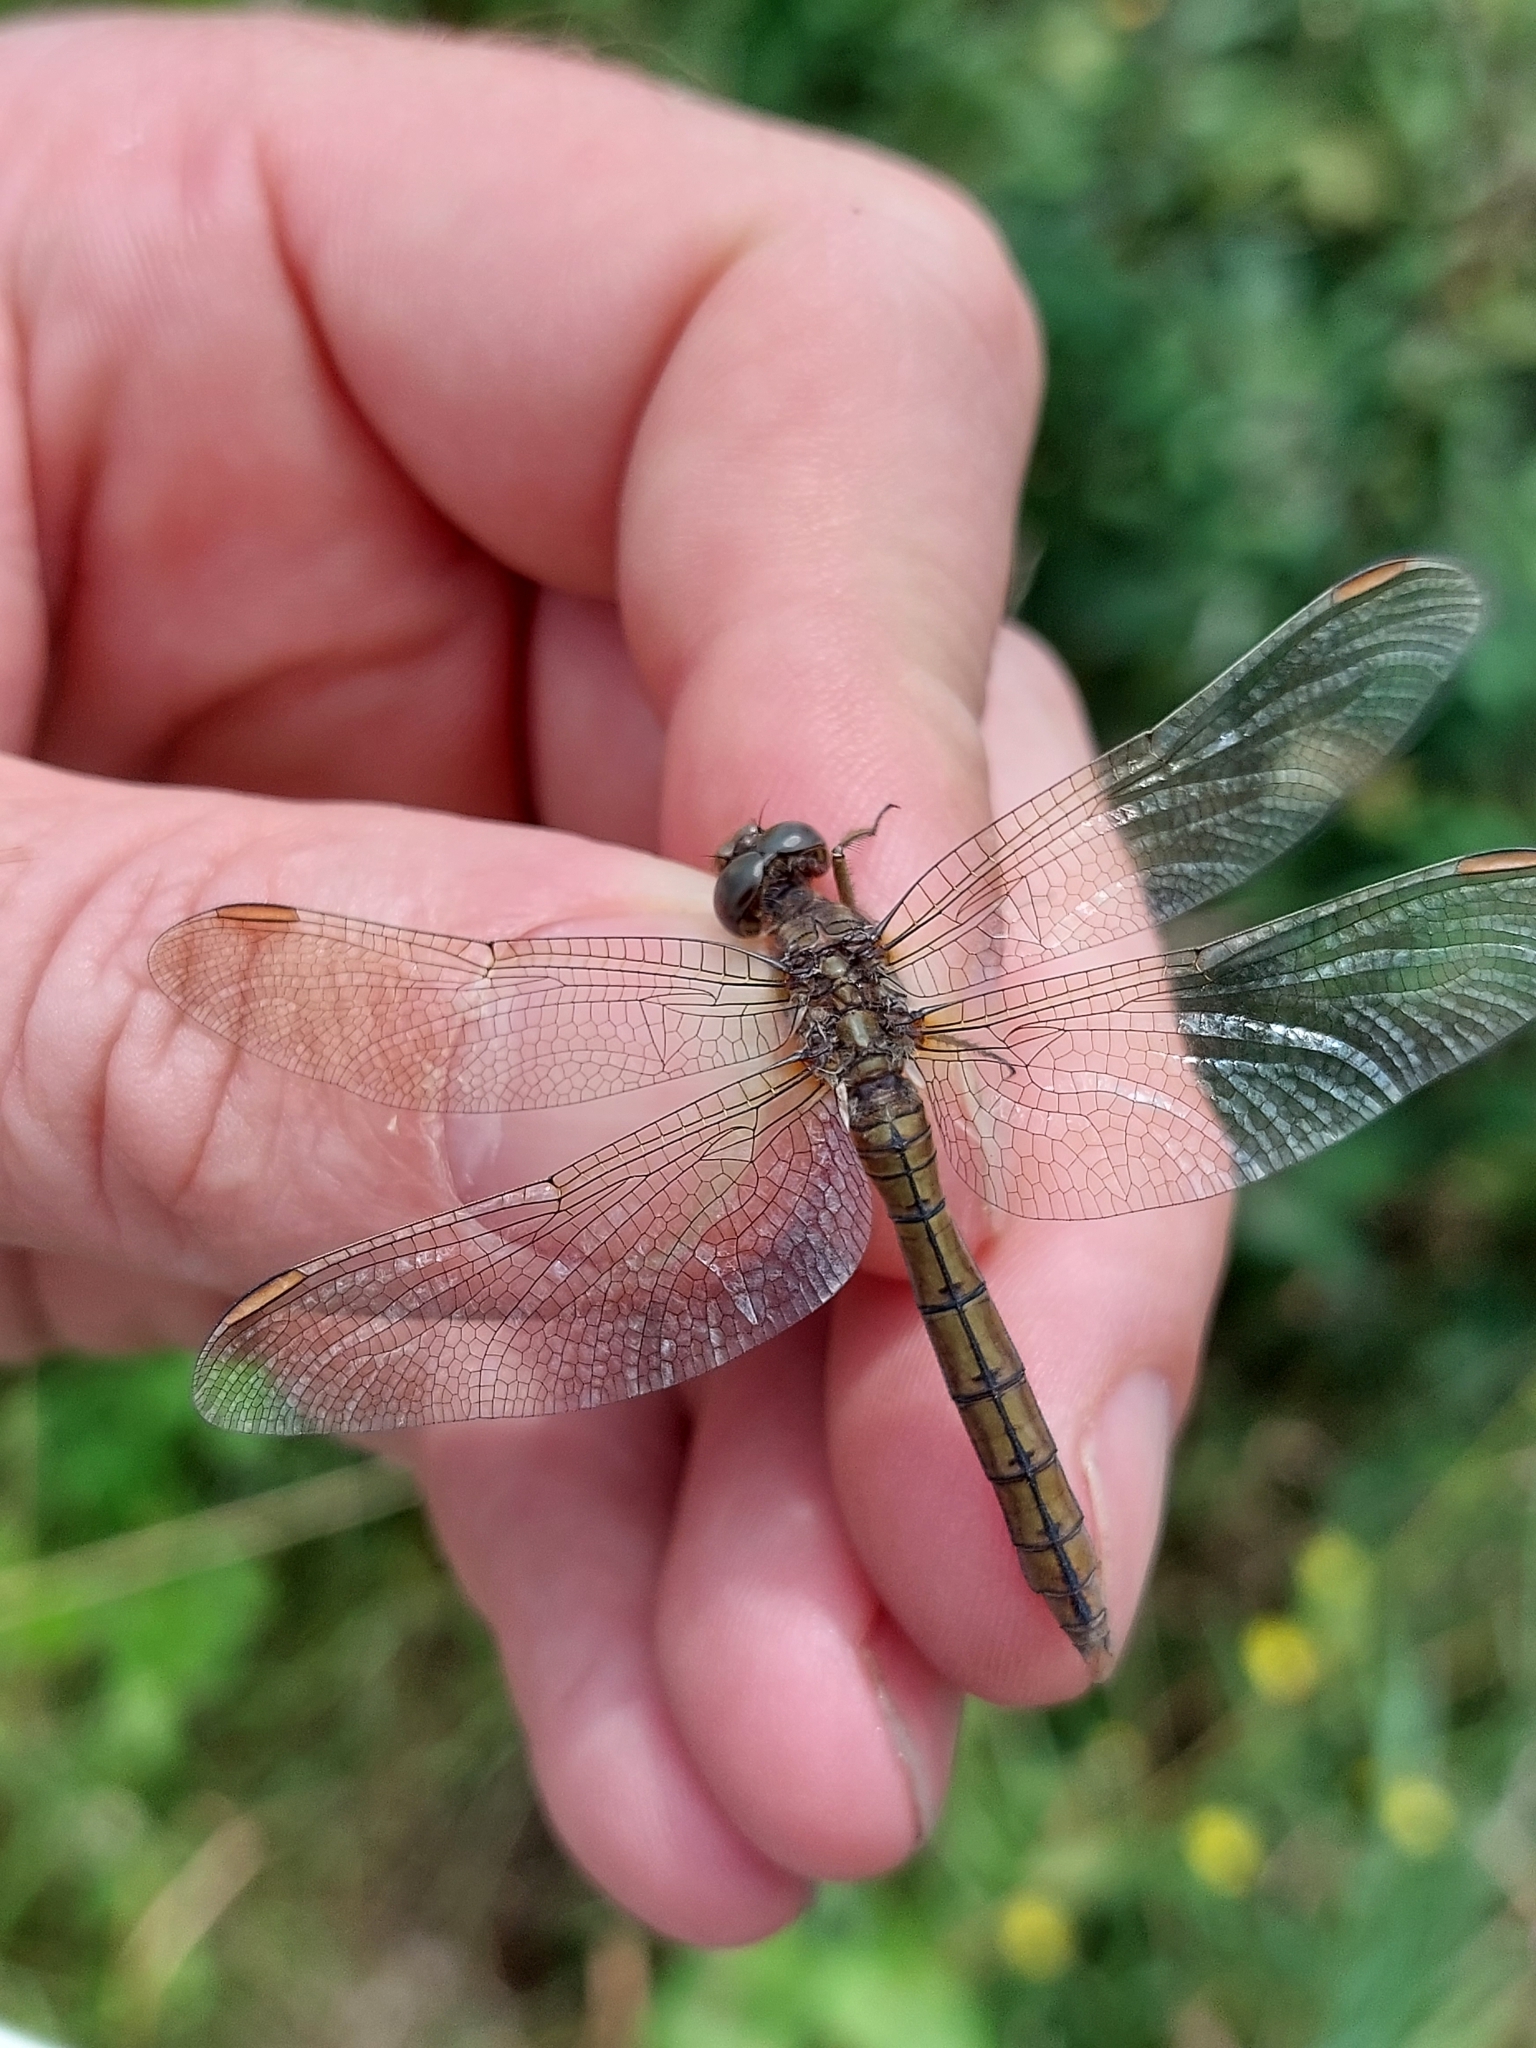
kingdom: Animalia
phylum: Arthropoda
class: Insecta
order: Odonata
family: Libellulidae
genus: Orthetrum
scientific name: Orthetrum coerulescens
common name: Keeled skimmer
